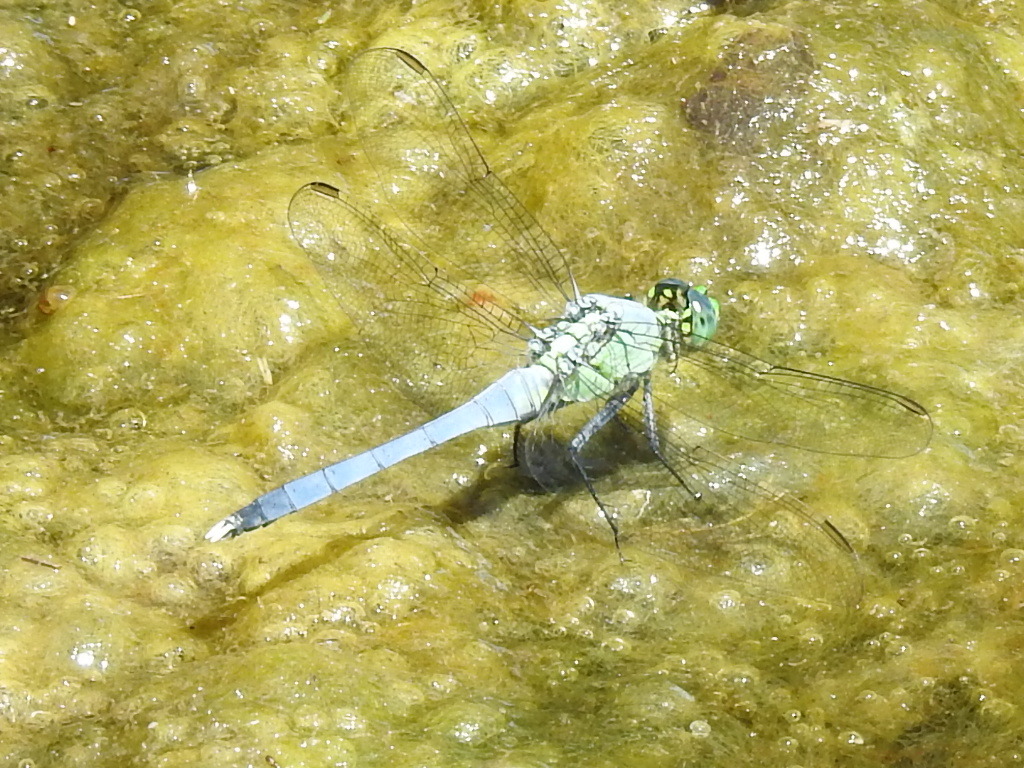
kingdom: Animalia
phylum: Arthropoda
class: Insecta
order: Odonata
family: Libellulidae
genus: Erythemis
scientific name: Erythemis simplicicollis
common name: Eastern pondhawk
